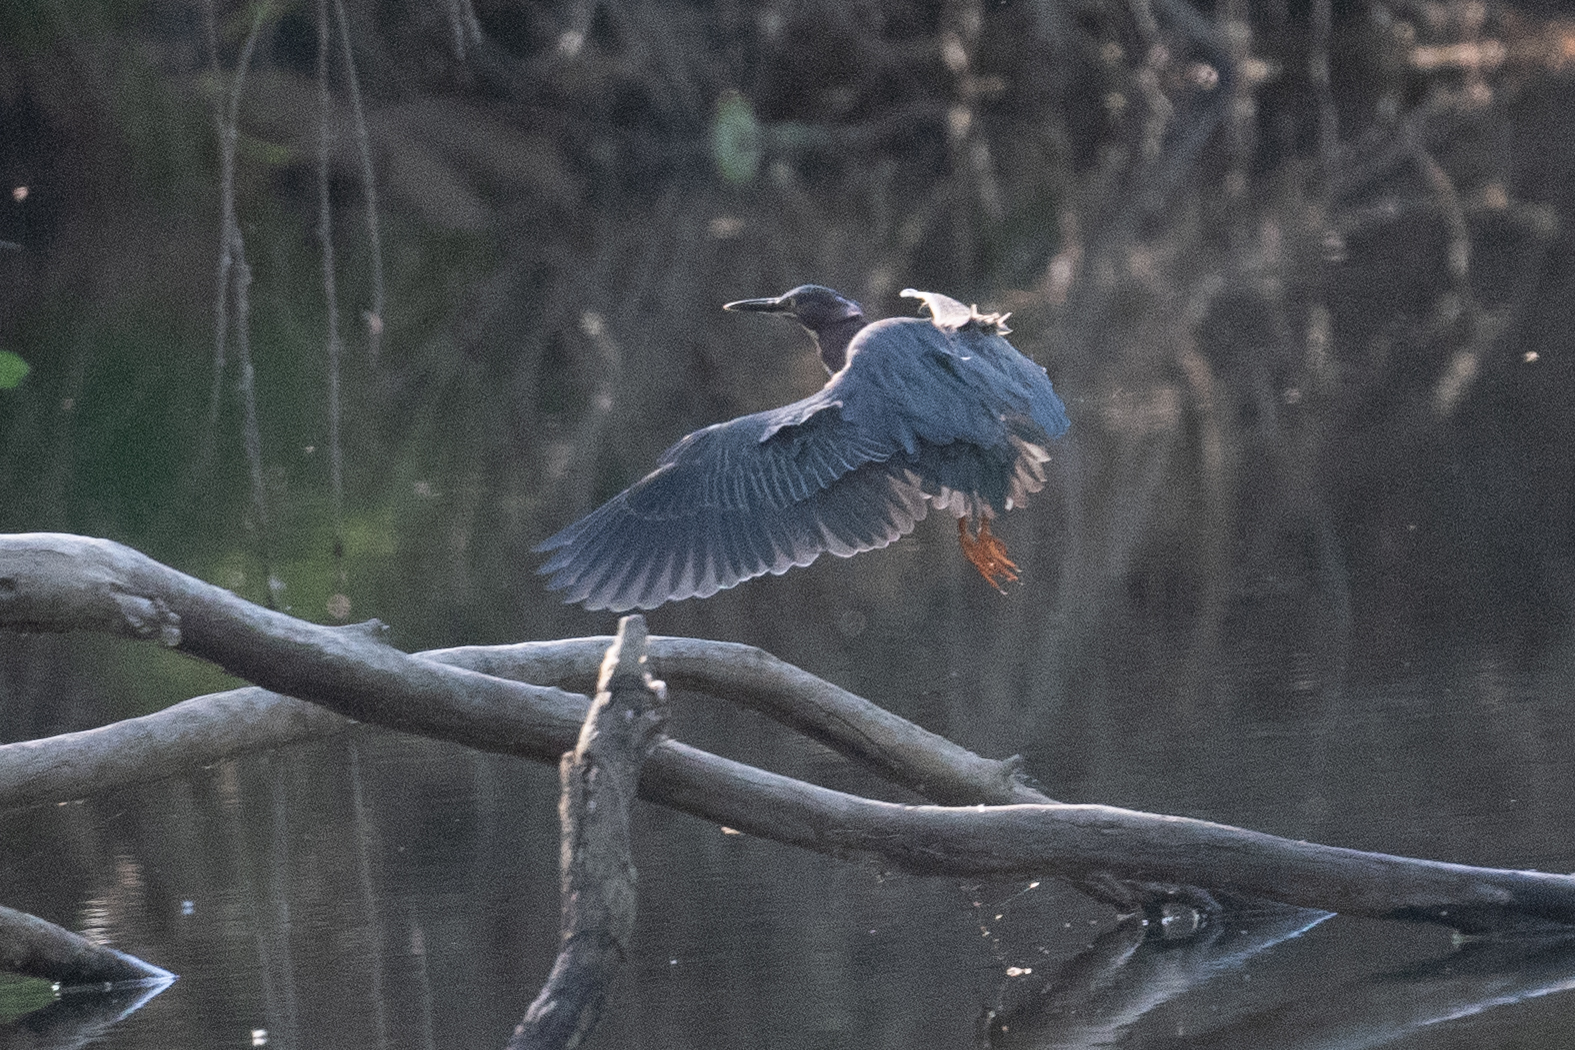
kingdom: Animalia
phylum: Chordata
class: Aves
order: Pelecaniformes
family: Ardeidae
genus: Butorides
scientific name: Butorides virescens
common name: Green heron
